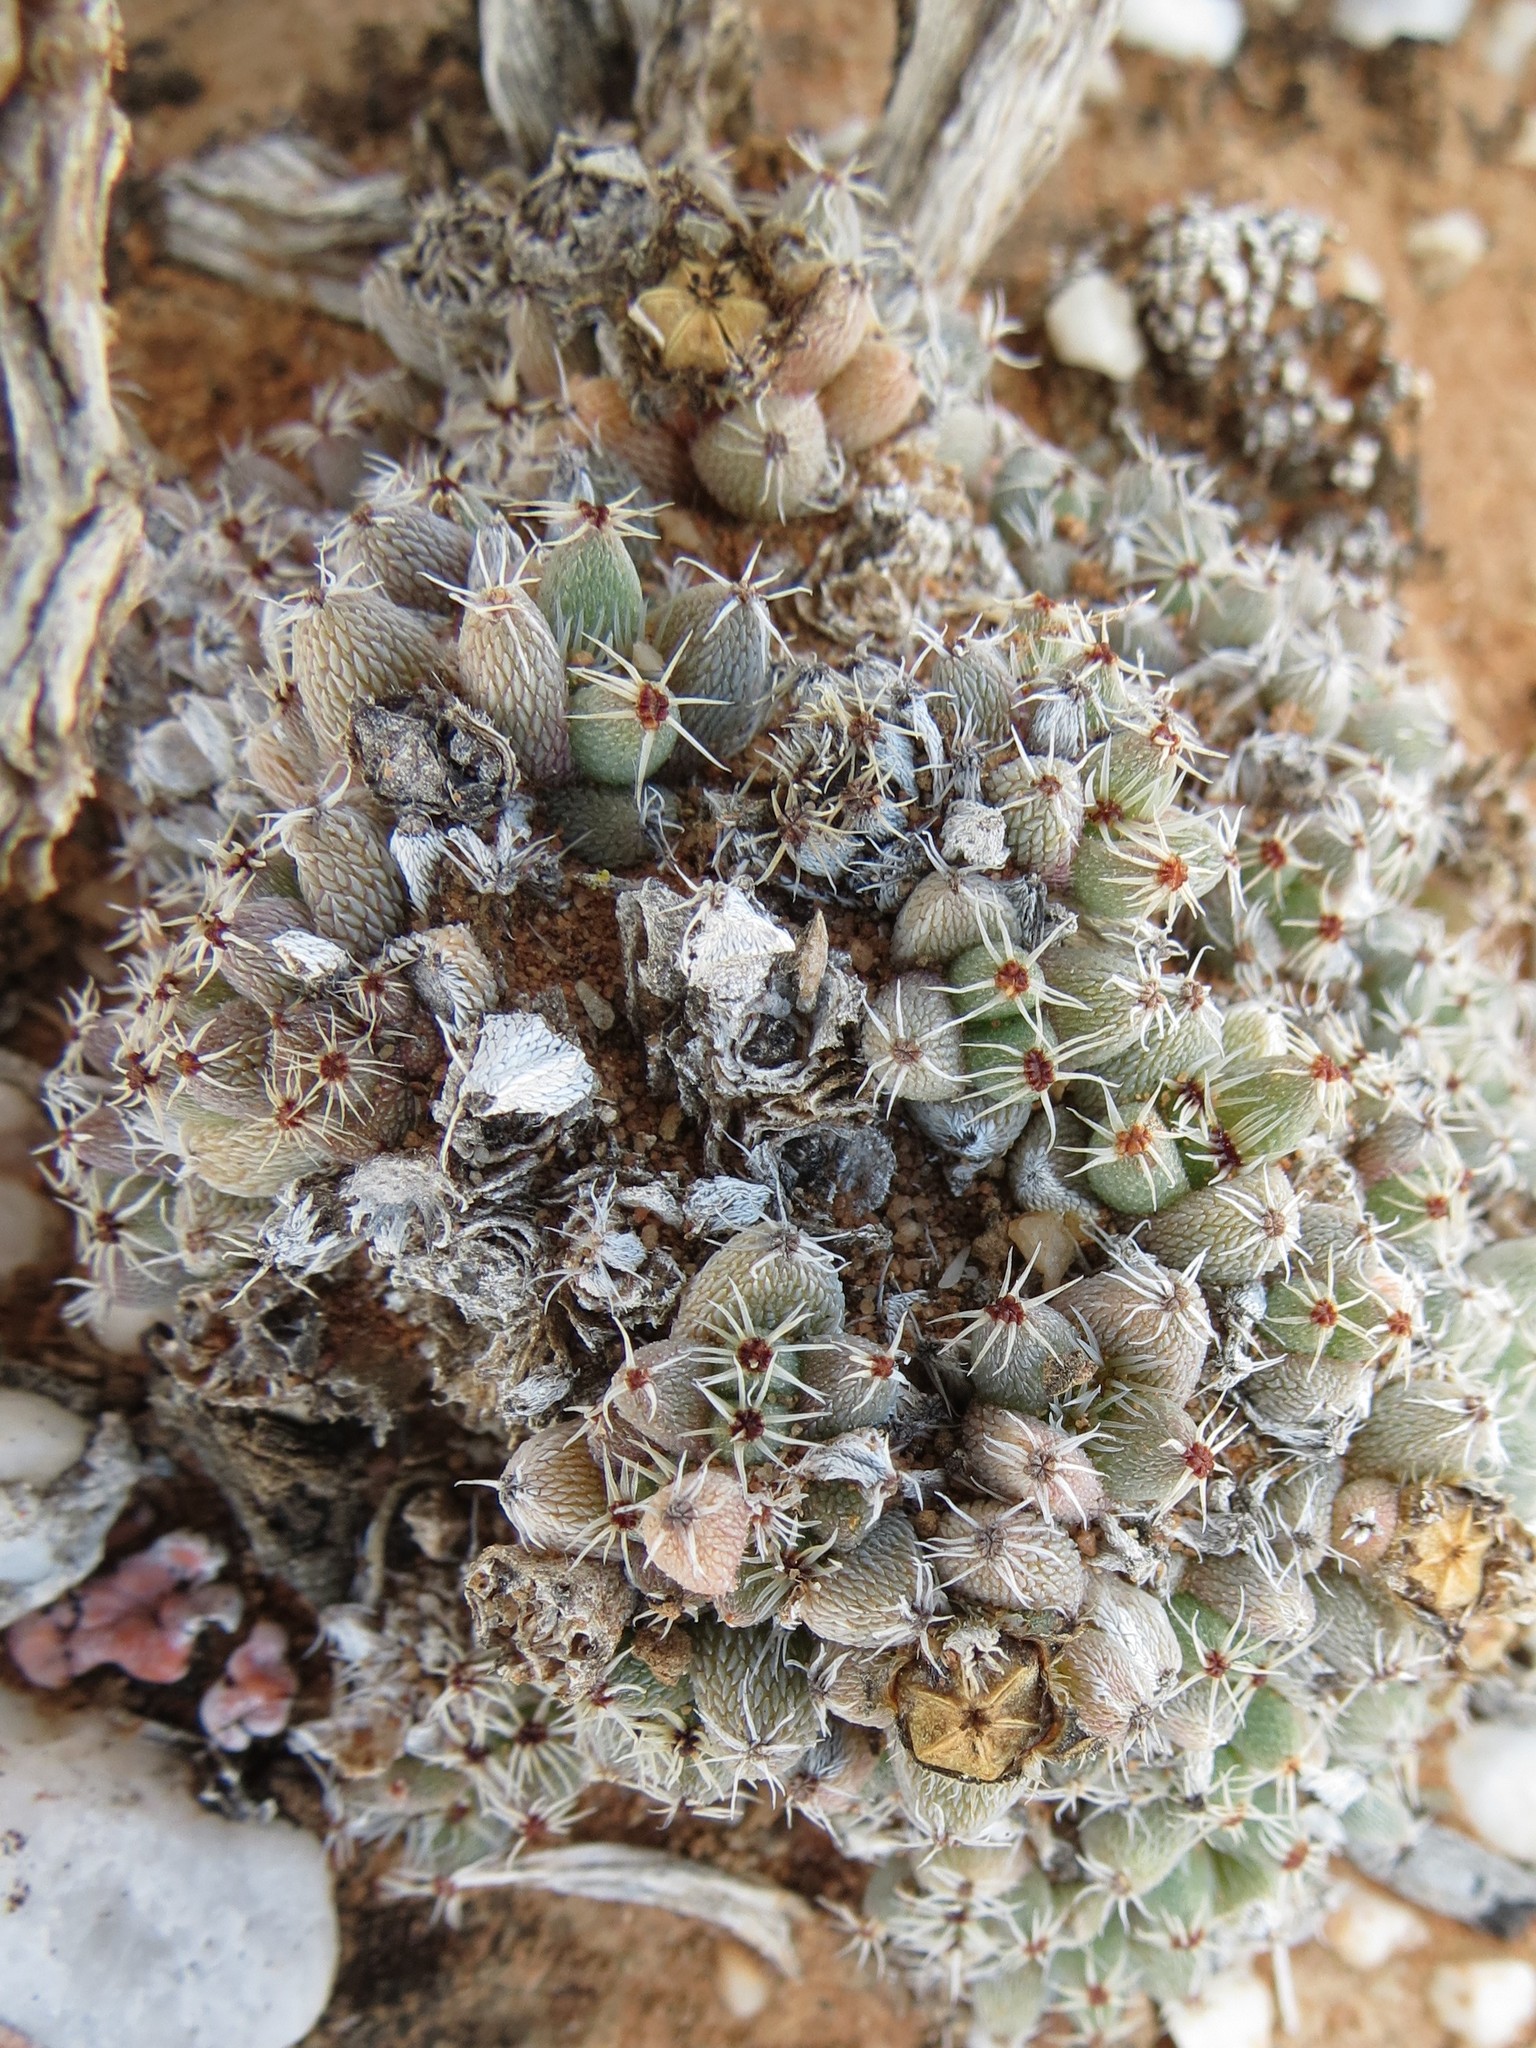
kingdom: Plantae
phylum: Tracheophyta
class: Magnoliopsida
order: Caryophyllales
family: Aizoaceae
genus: Trichodiadema
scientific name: Trichodiadema marlothii
